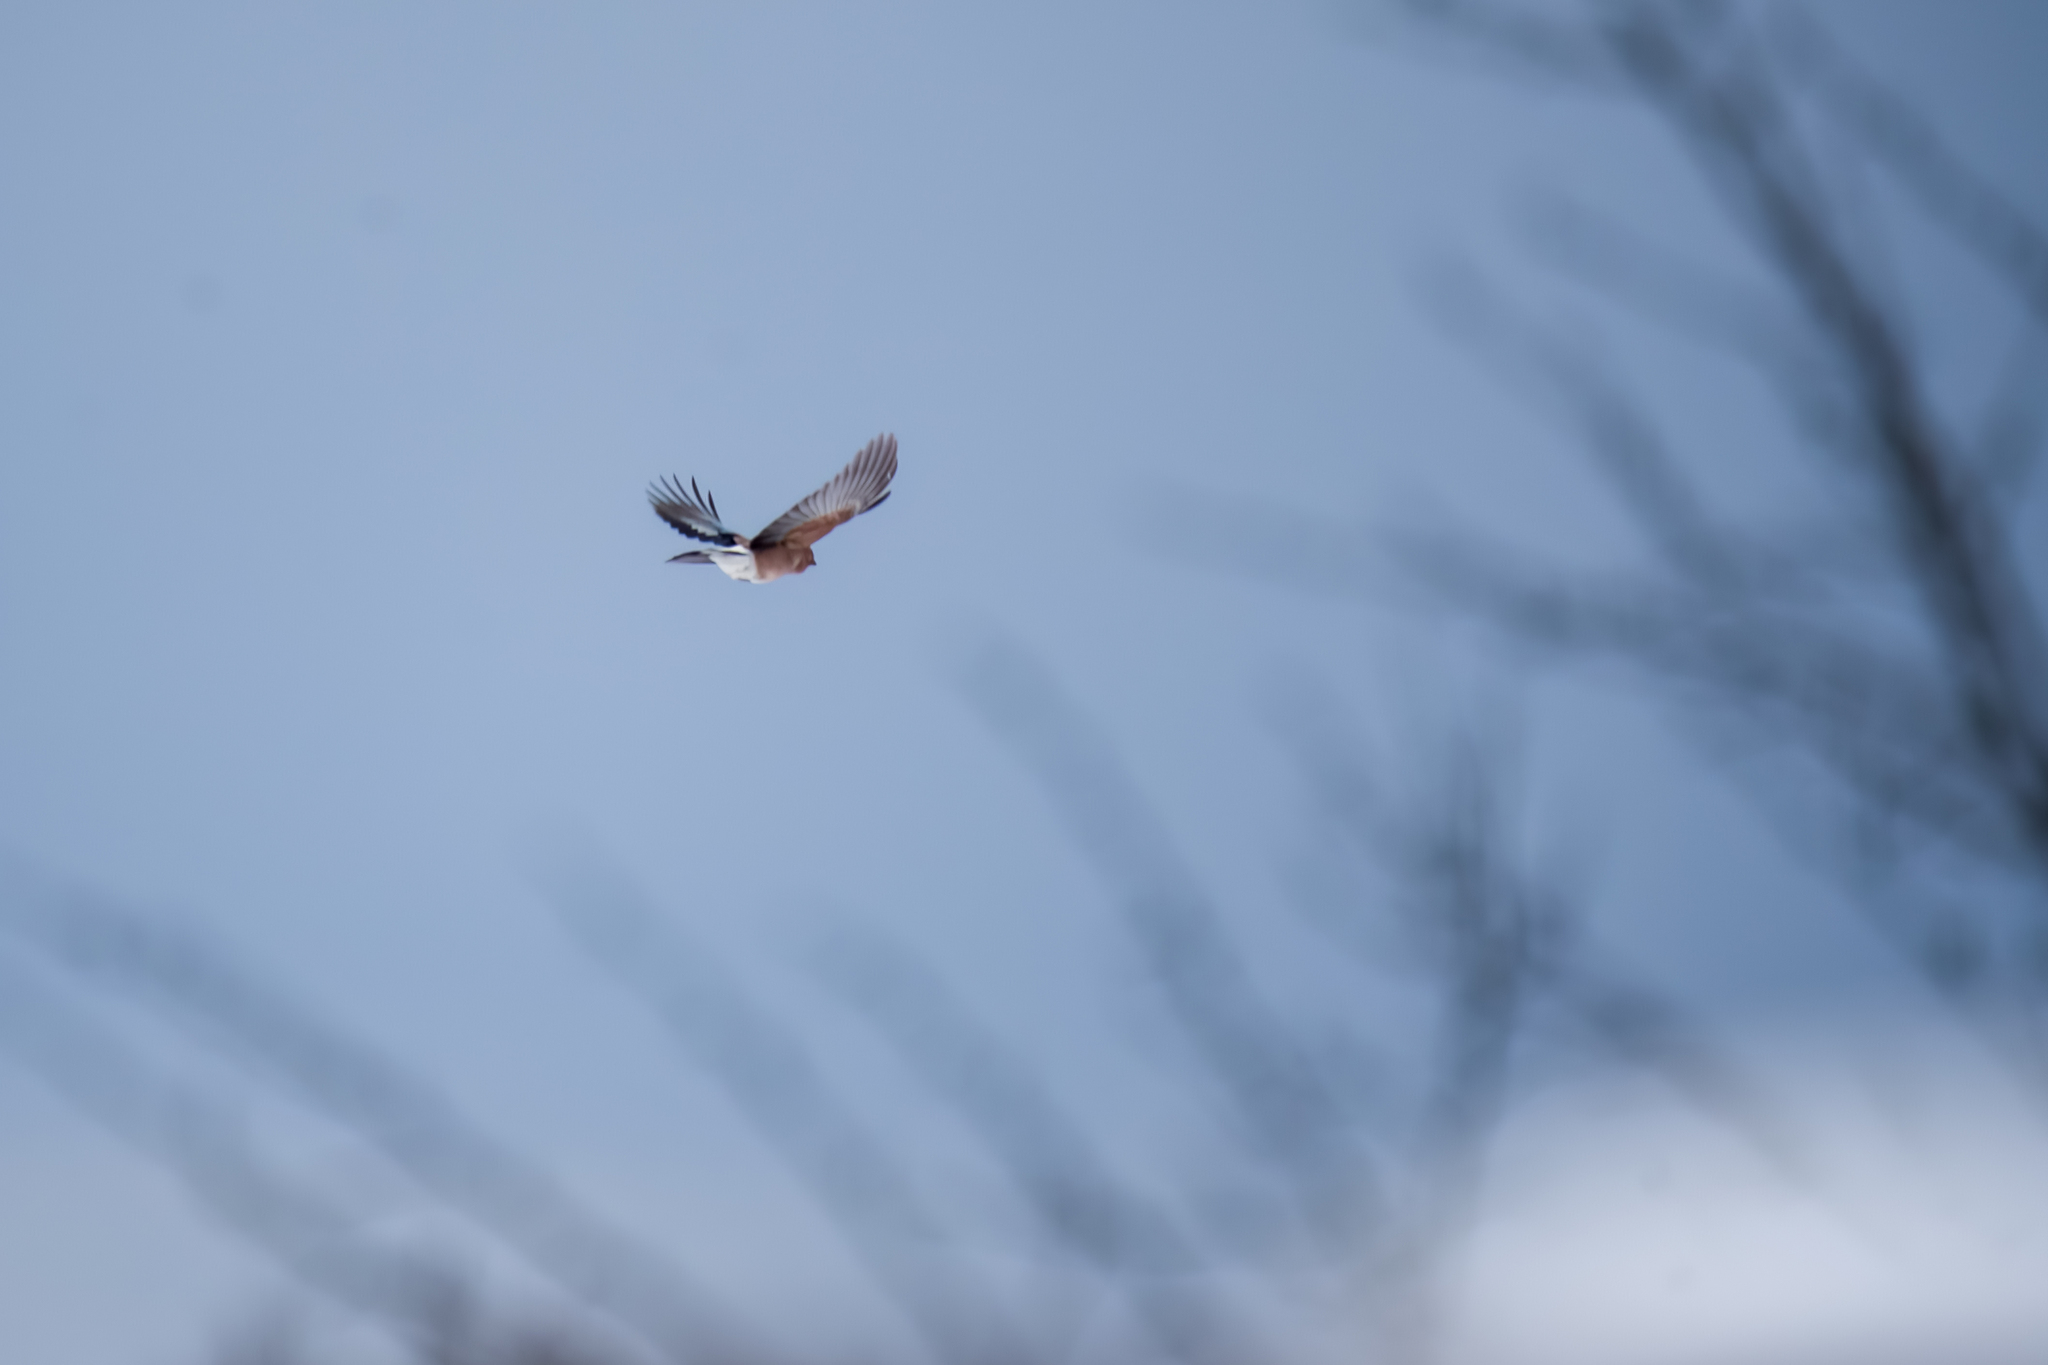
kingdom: Animalia
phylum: Chordata
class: Aves
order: Passeriformes
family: Corvidae
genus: Garrulus
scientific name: Garrulus glandarius
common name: Eurasian jay
